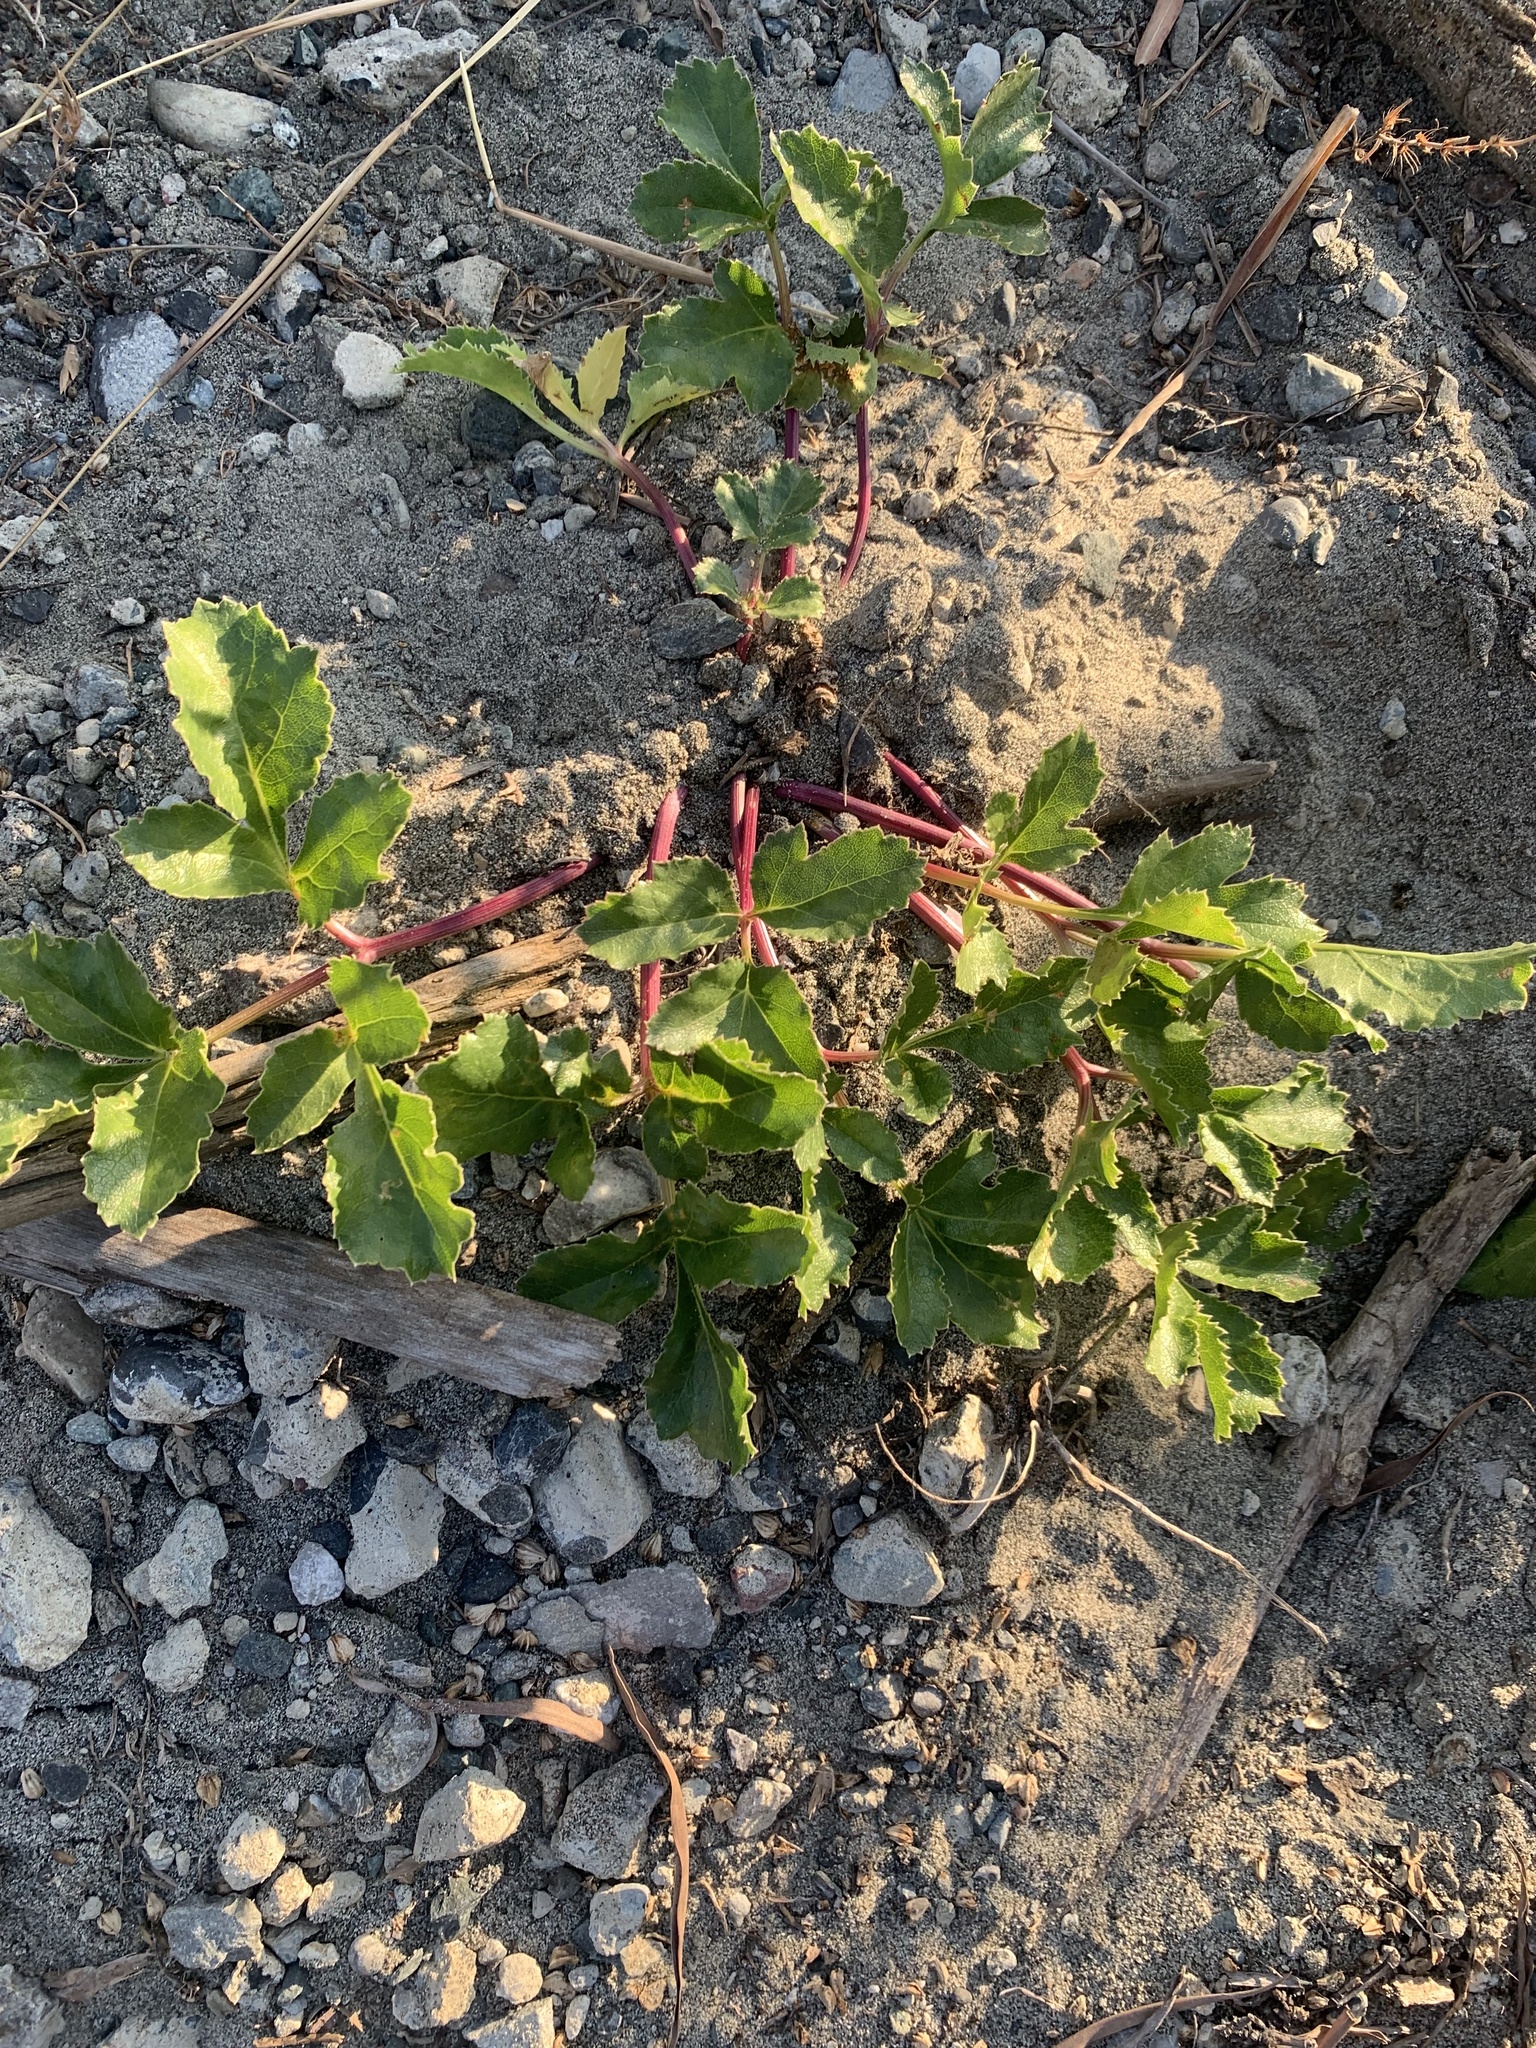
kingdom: Plantae
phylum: Tracheophyta
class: Magnoliopsida
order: Apiales
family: Apiaceae
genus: Glehnia
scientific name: Glehnia littoralis
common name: Beach silvertop
